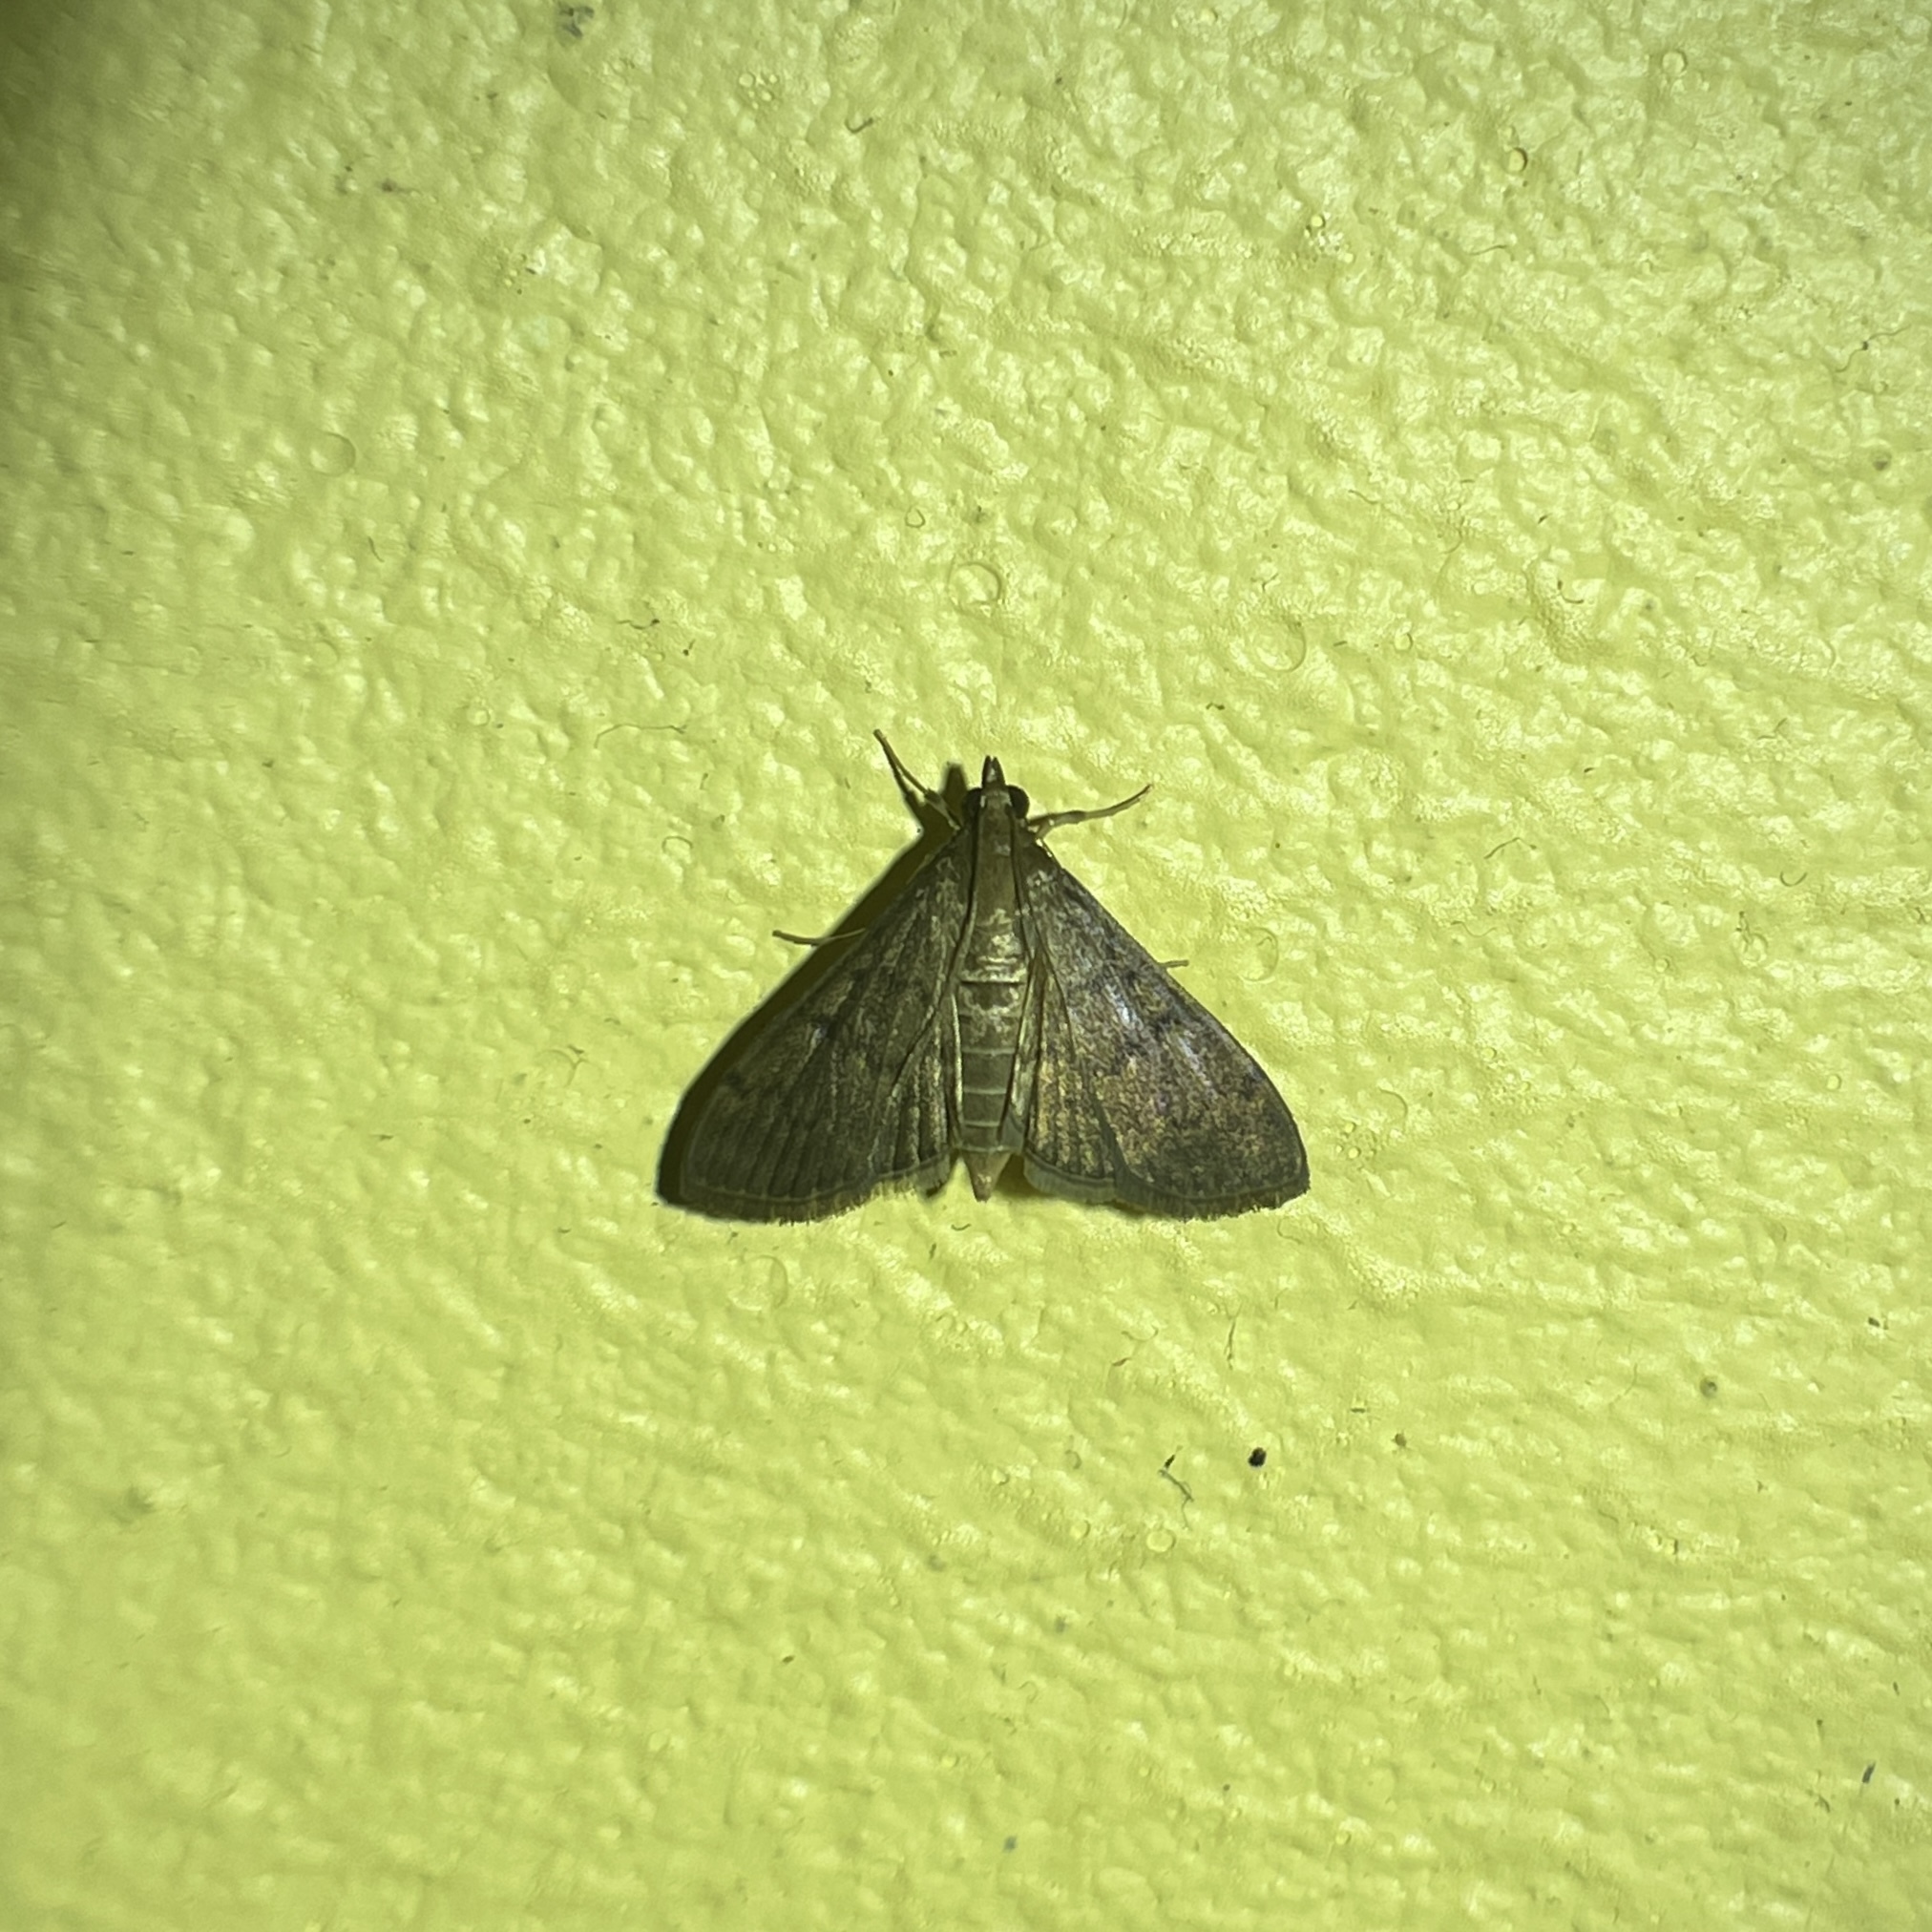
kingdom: Animalia
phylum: Arthropoda
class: Insecta
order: Lepidoptera
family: Crambidae
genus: Herpetogramma
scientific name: Herpetogramma phaeopteralis
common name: Dusky herpetogramma moth
